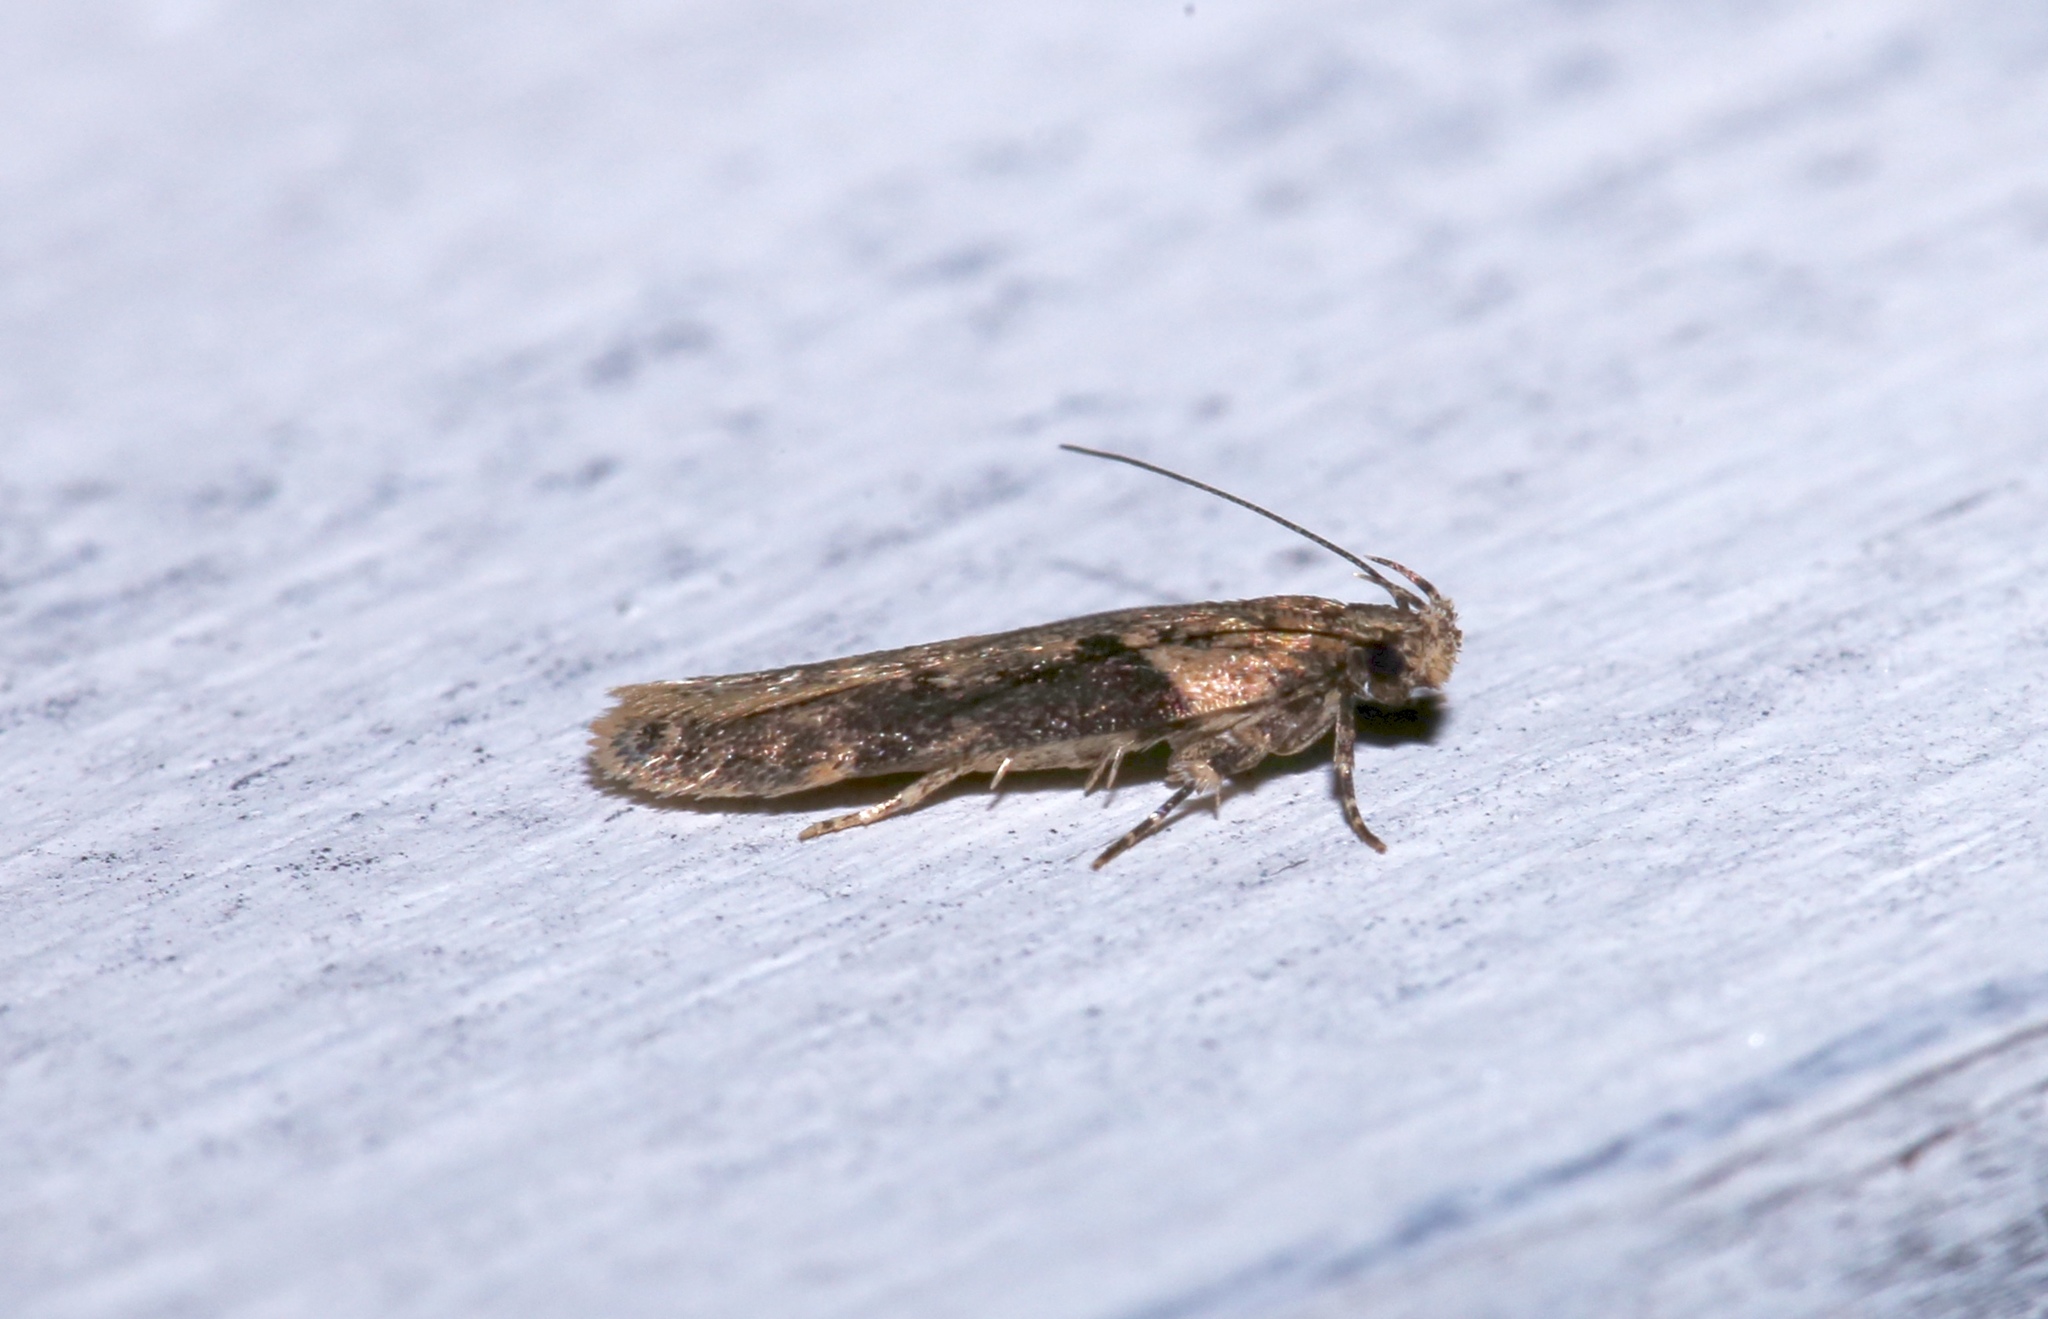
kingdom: Animalia
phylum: Arthropoda
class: Insecta
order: Lepidoptera
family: Gelechiidae
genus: Chionodes
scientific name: Chionodes mediofuscella
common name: Black-smudged chionodes moth
